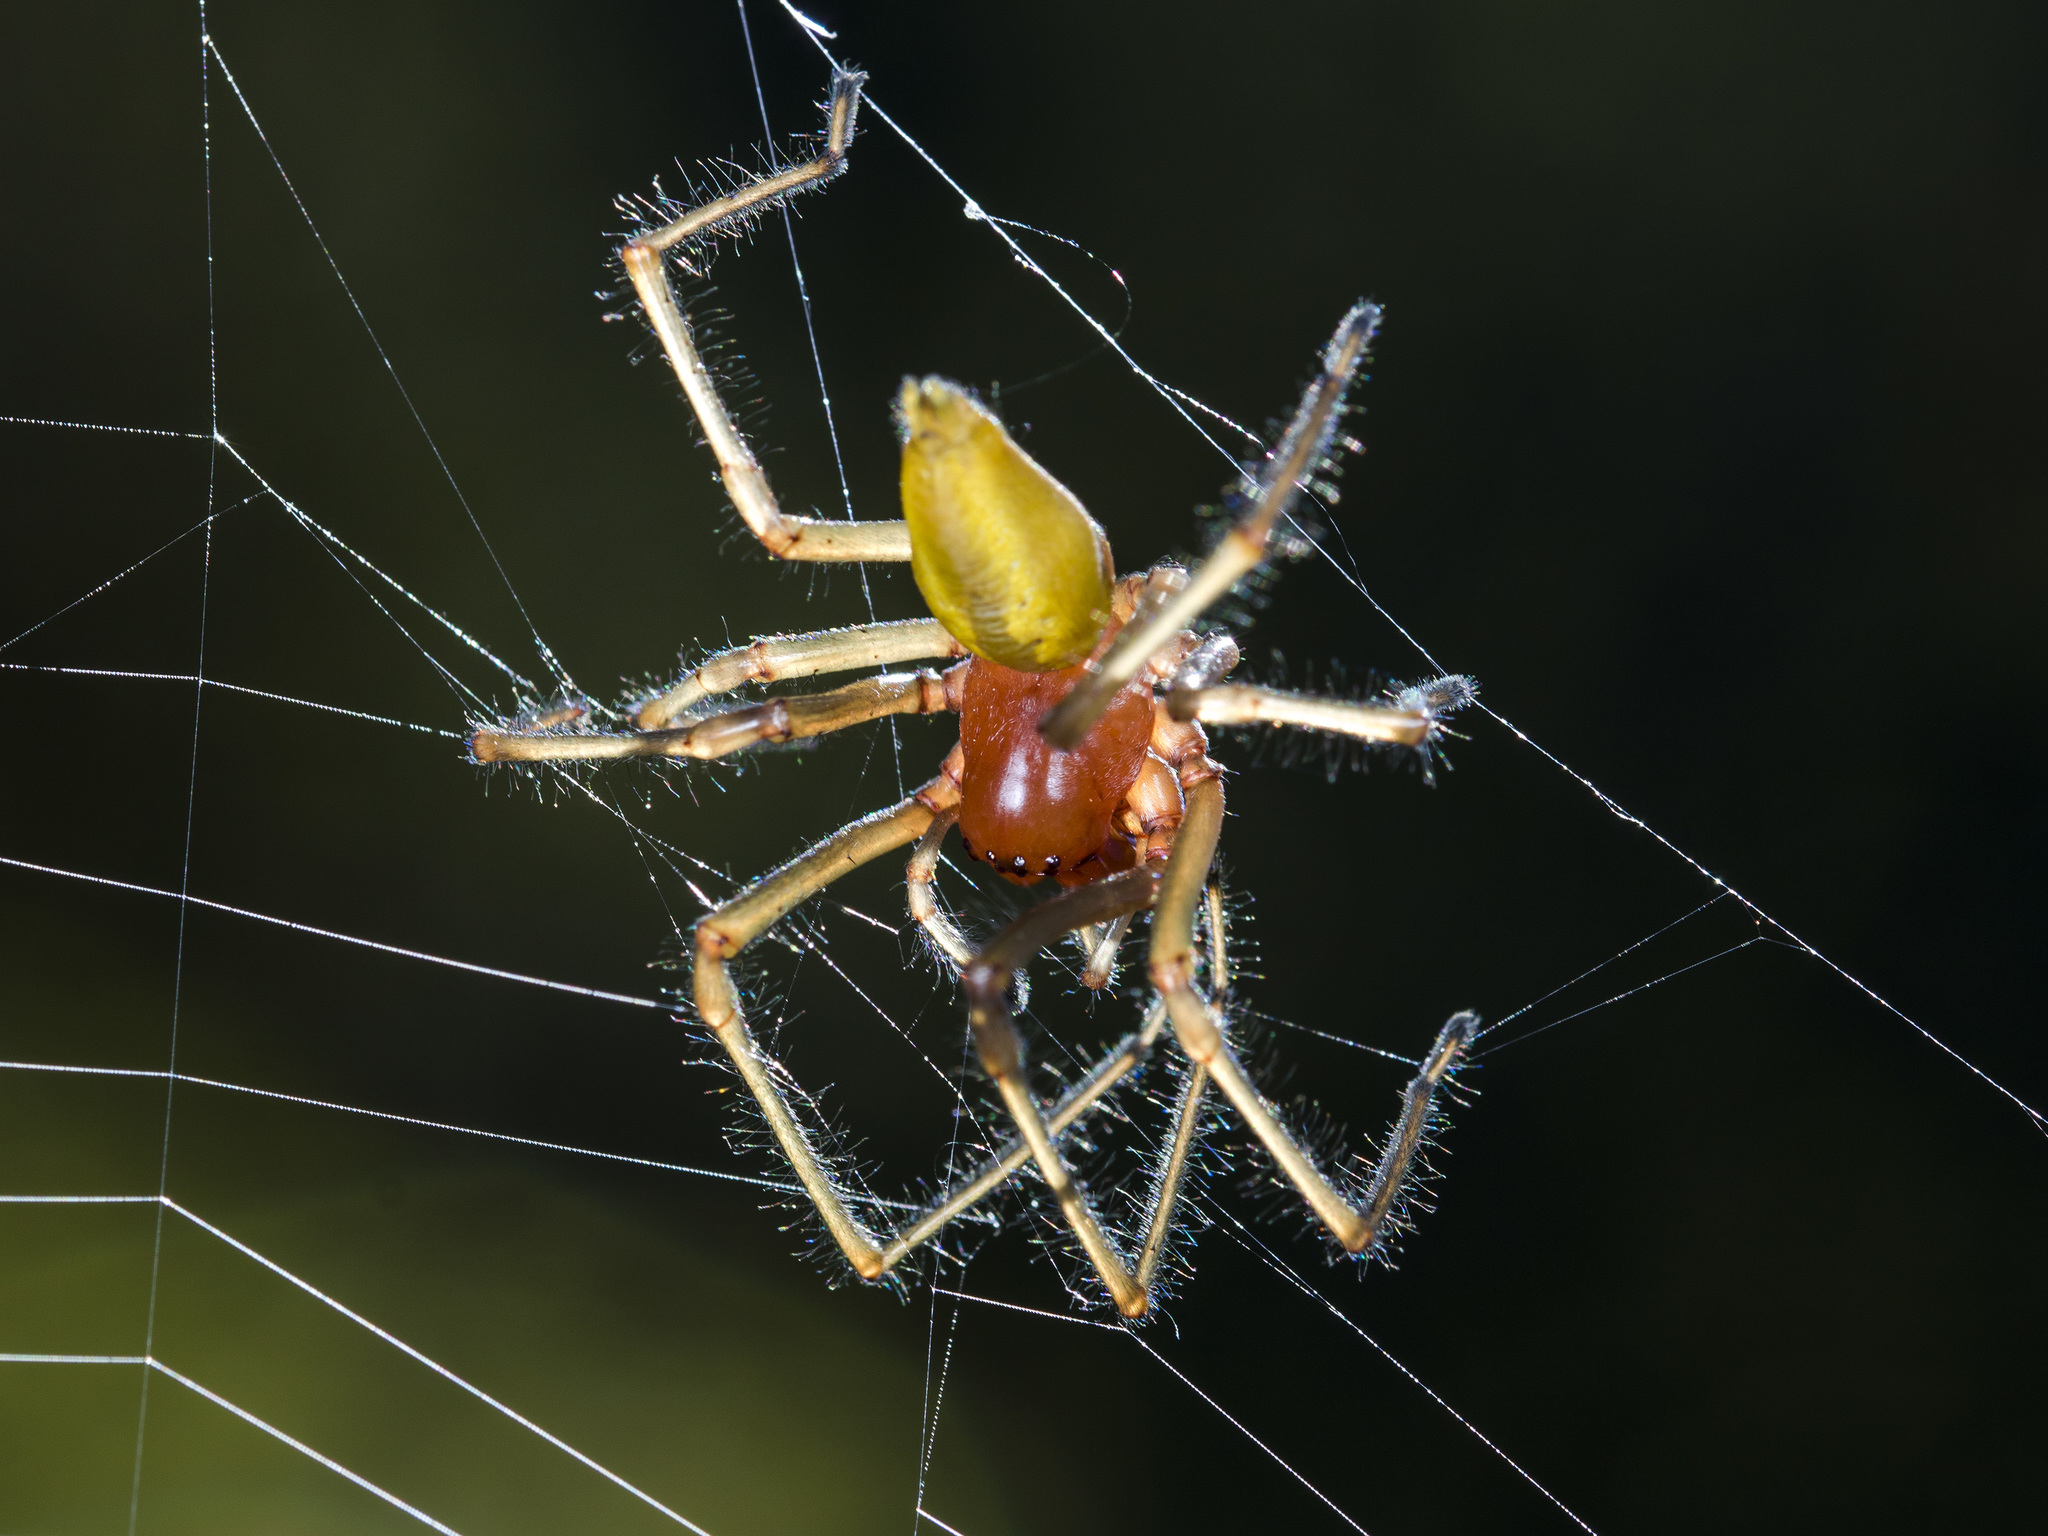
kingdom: Animalia
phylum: Arthropoda
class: Arachnida
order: Araneae
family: Cheiracanthiidae
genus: Cheiracanthium
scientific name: Cheiracanthium punctorium
